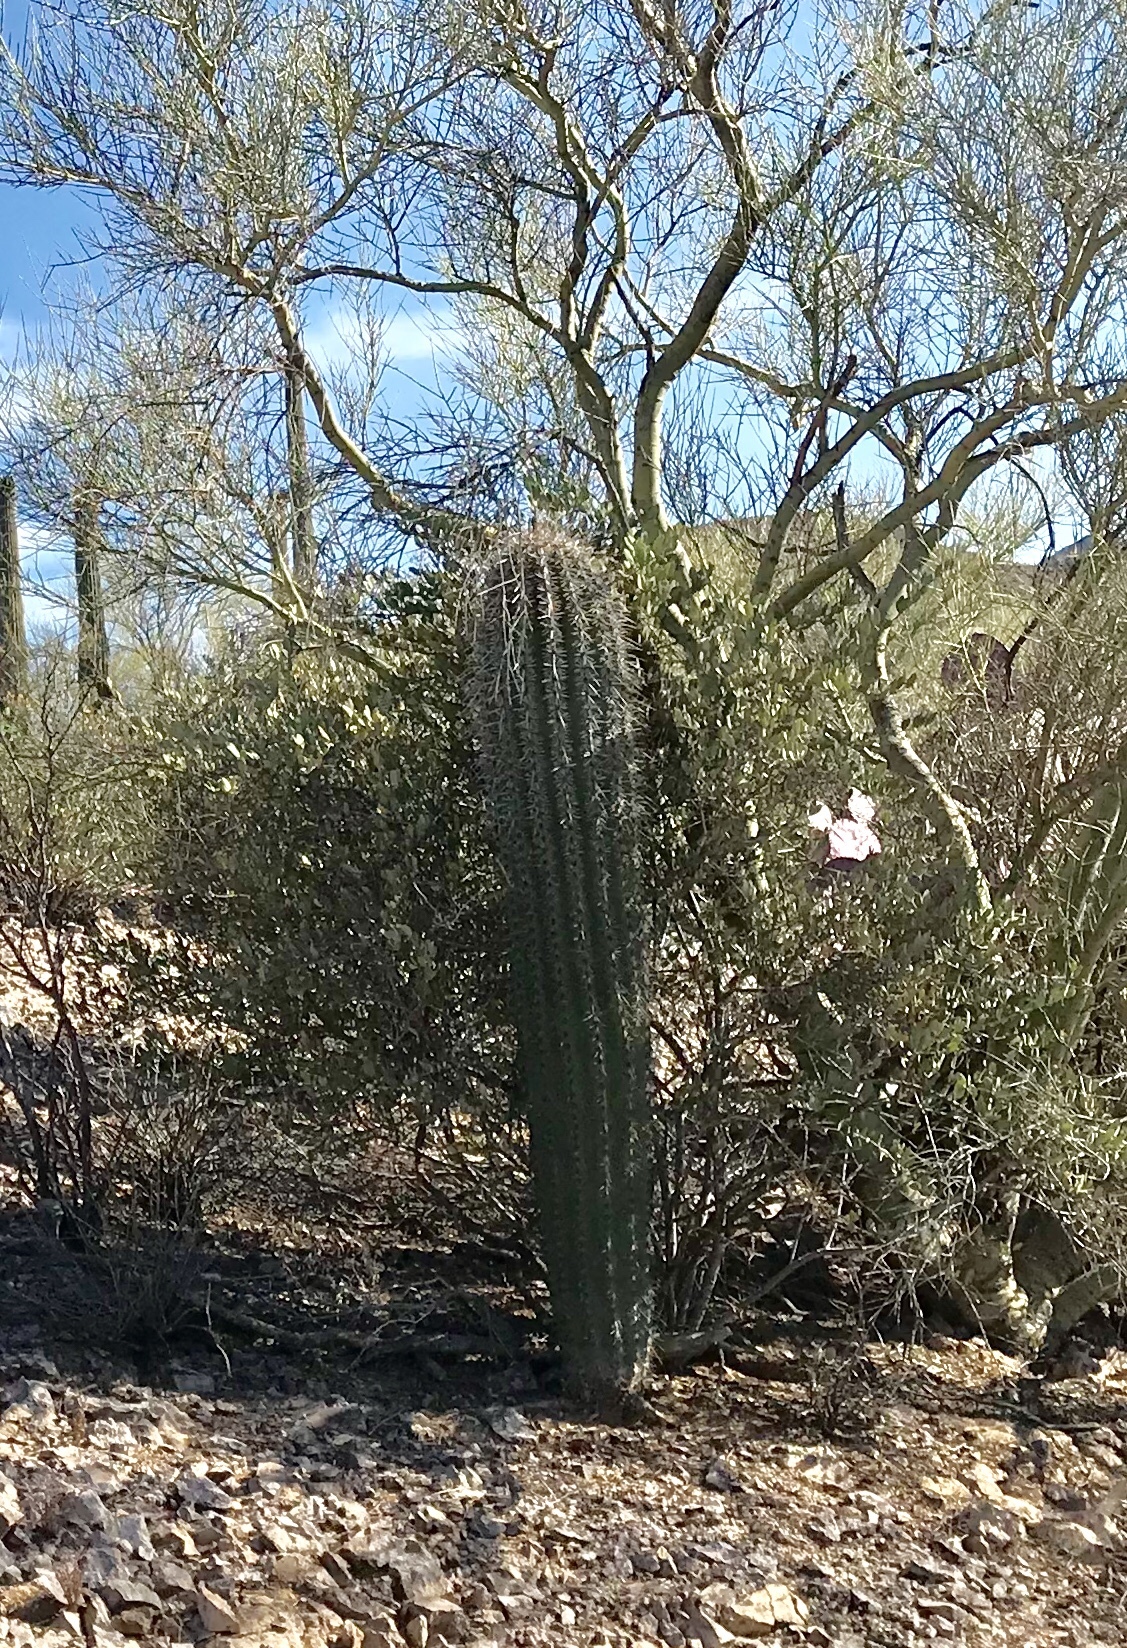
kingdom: Plantae
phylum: Tracheophyta
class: Magnoliopsida
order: Caryophyllales
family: Cactaceae
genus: Carnegiea
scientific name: Carnegiea gigantea
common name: Saguaro
